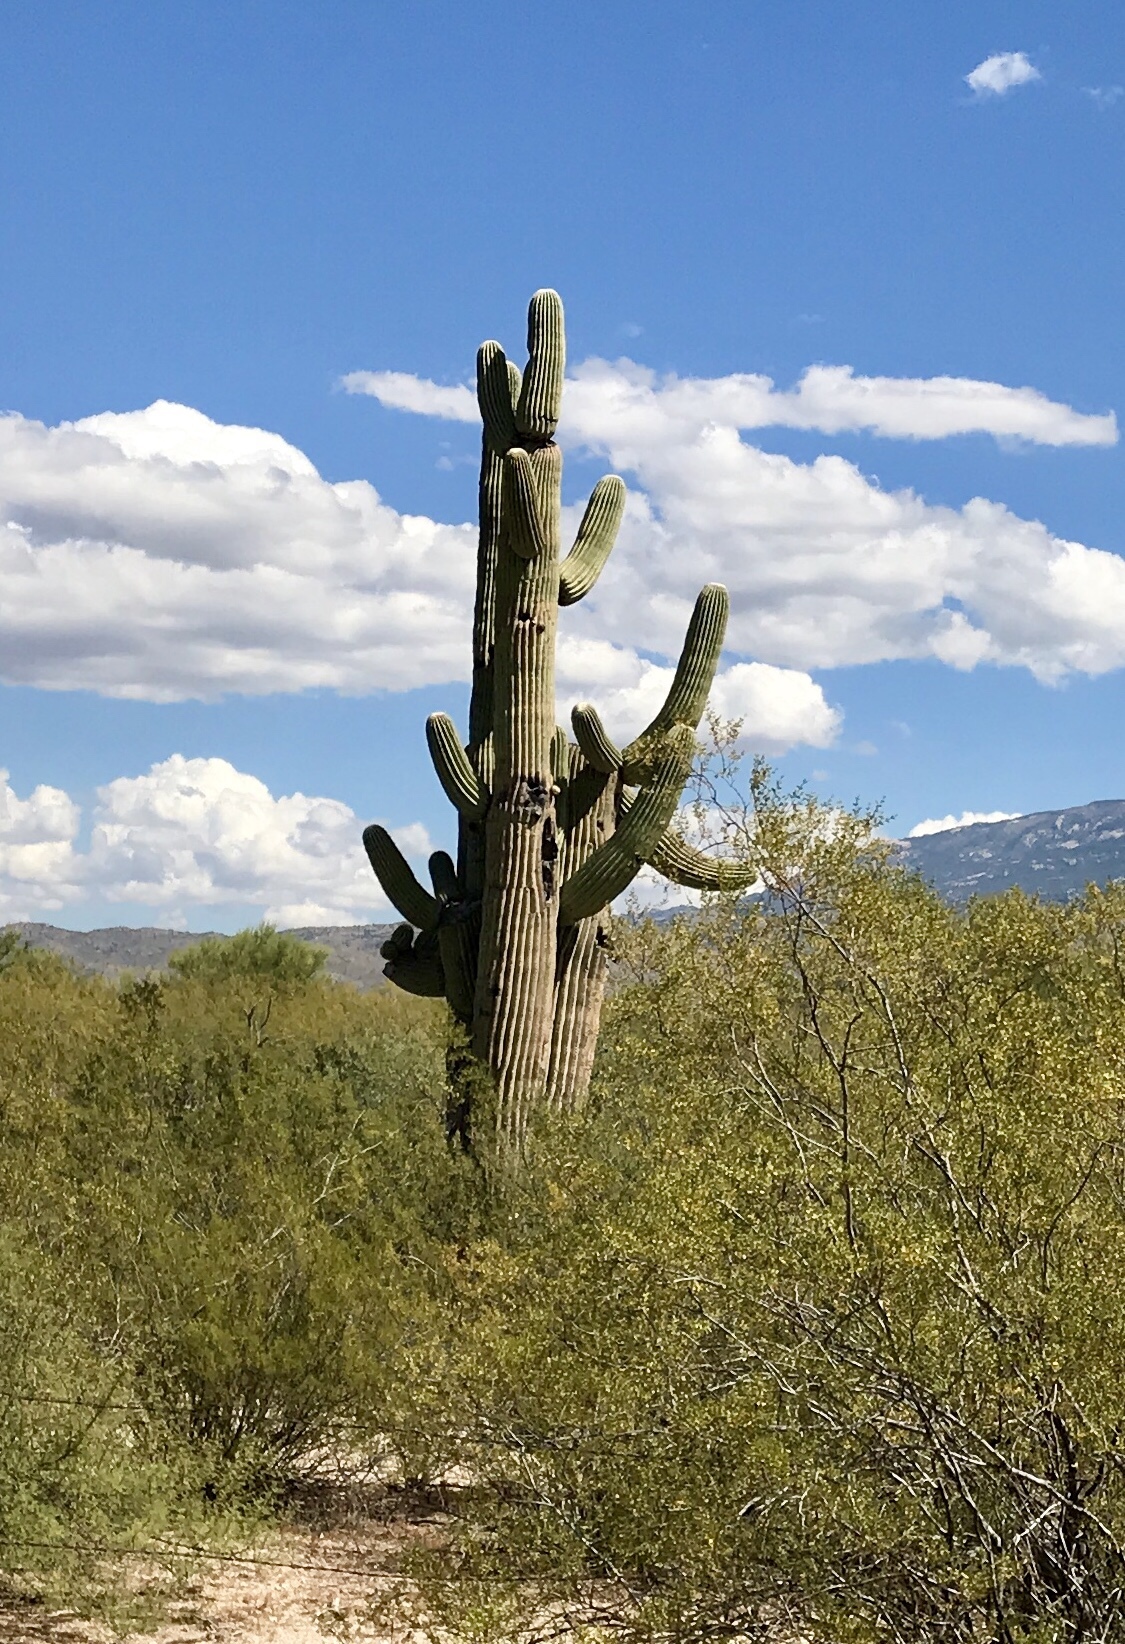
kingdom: Plantae
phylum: Tracheophyta
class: Magnoliopsida
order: Caryophyllales
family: Cactaceae
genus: Carnegiea
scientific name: Carnegiea gigantea
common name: Saguaro
